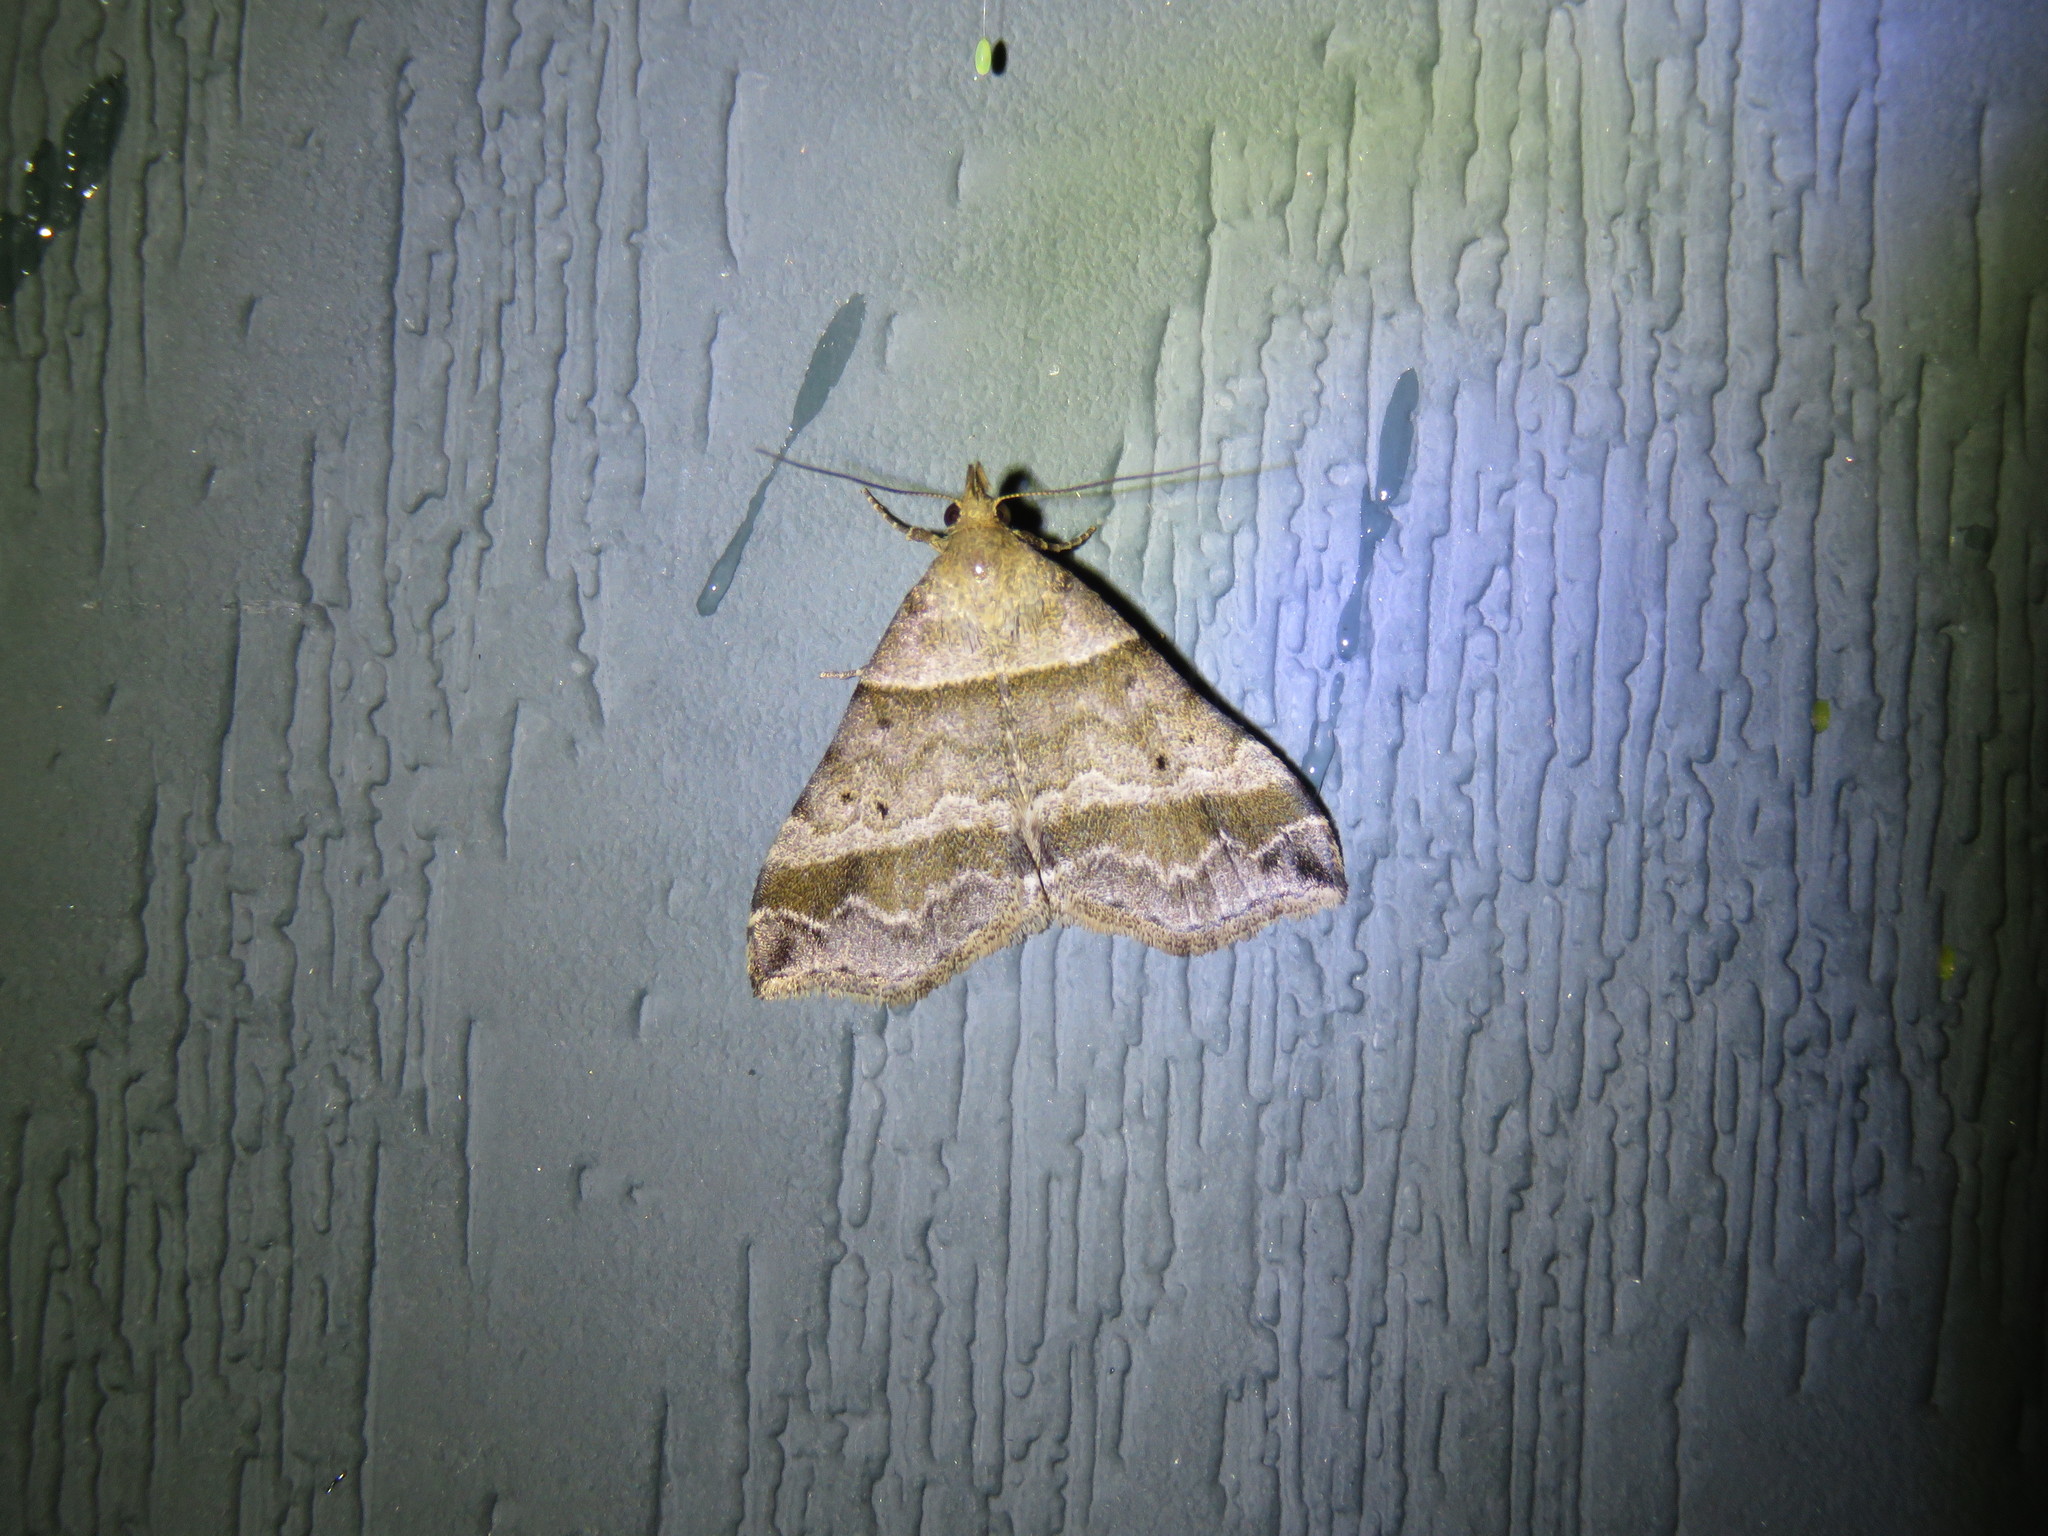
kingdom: Animalia
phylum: Arthropoda
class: Insecta
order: Lepidoptera
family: Erebidae
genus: Phaeolita
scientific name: Phaeolita pyramusalis
